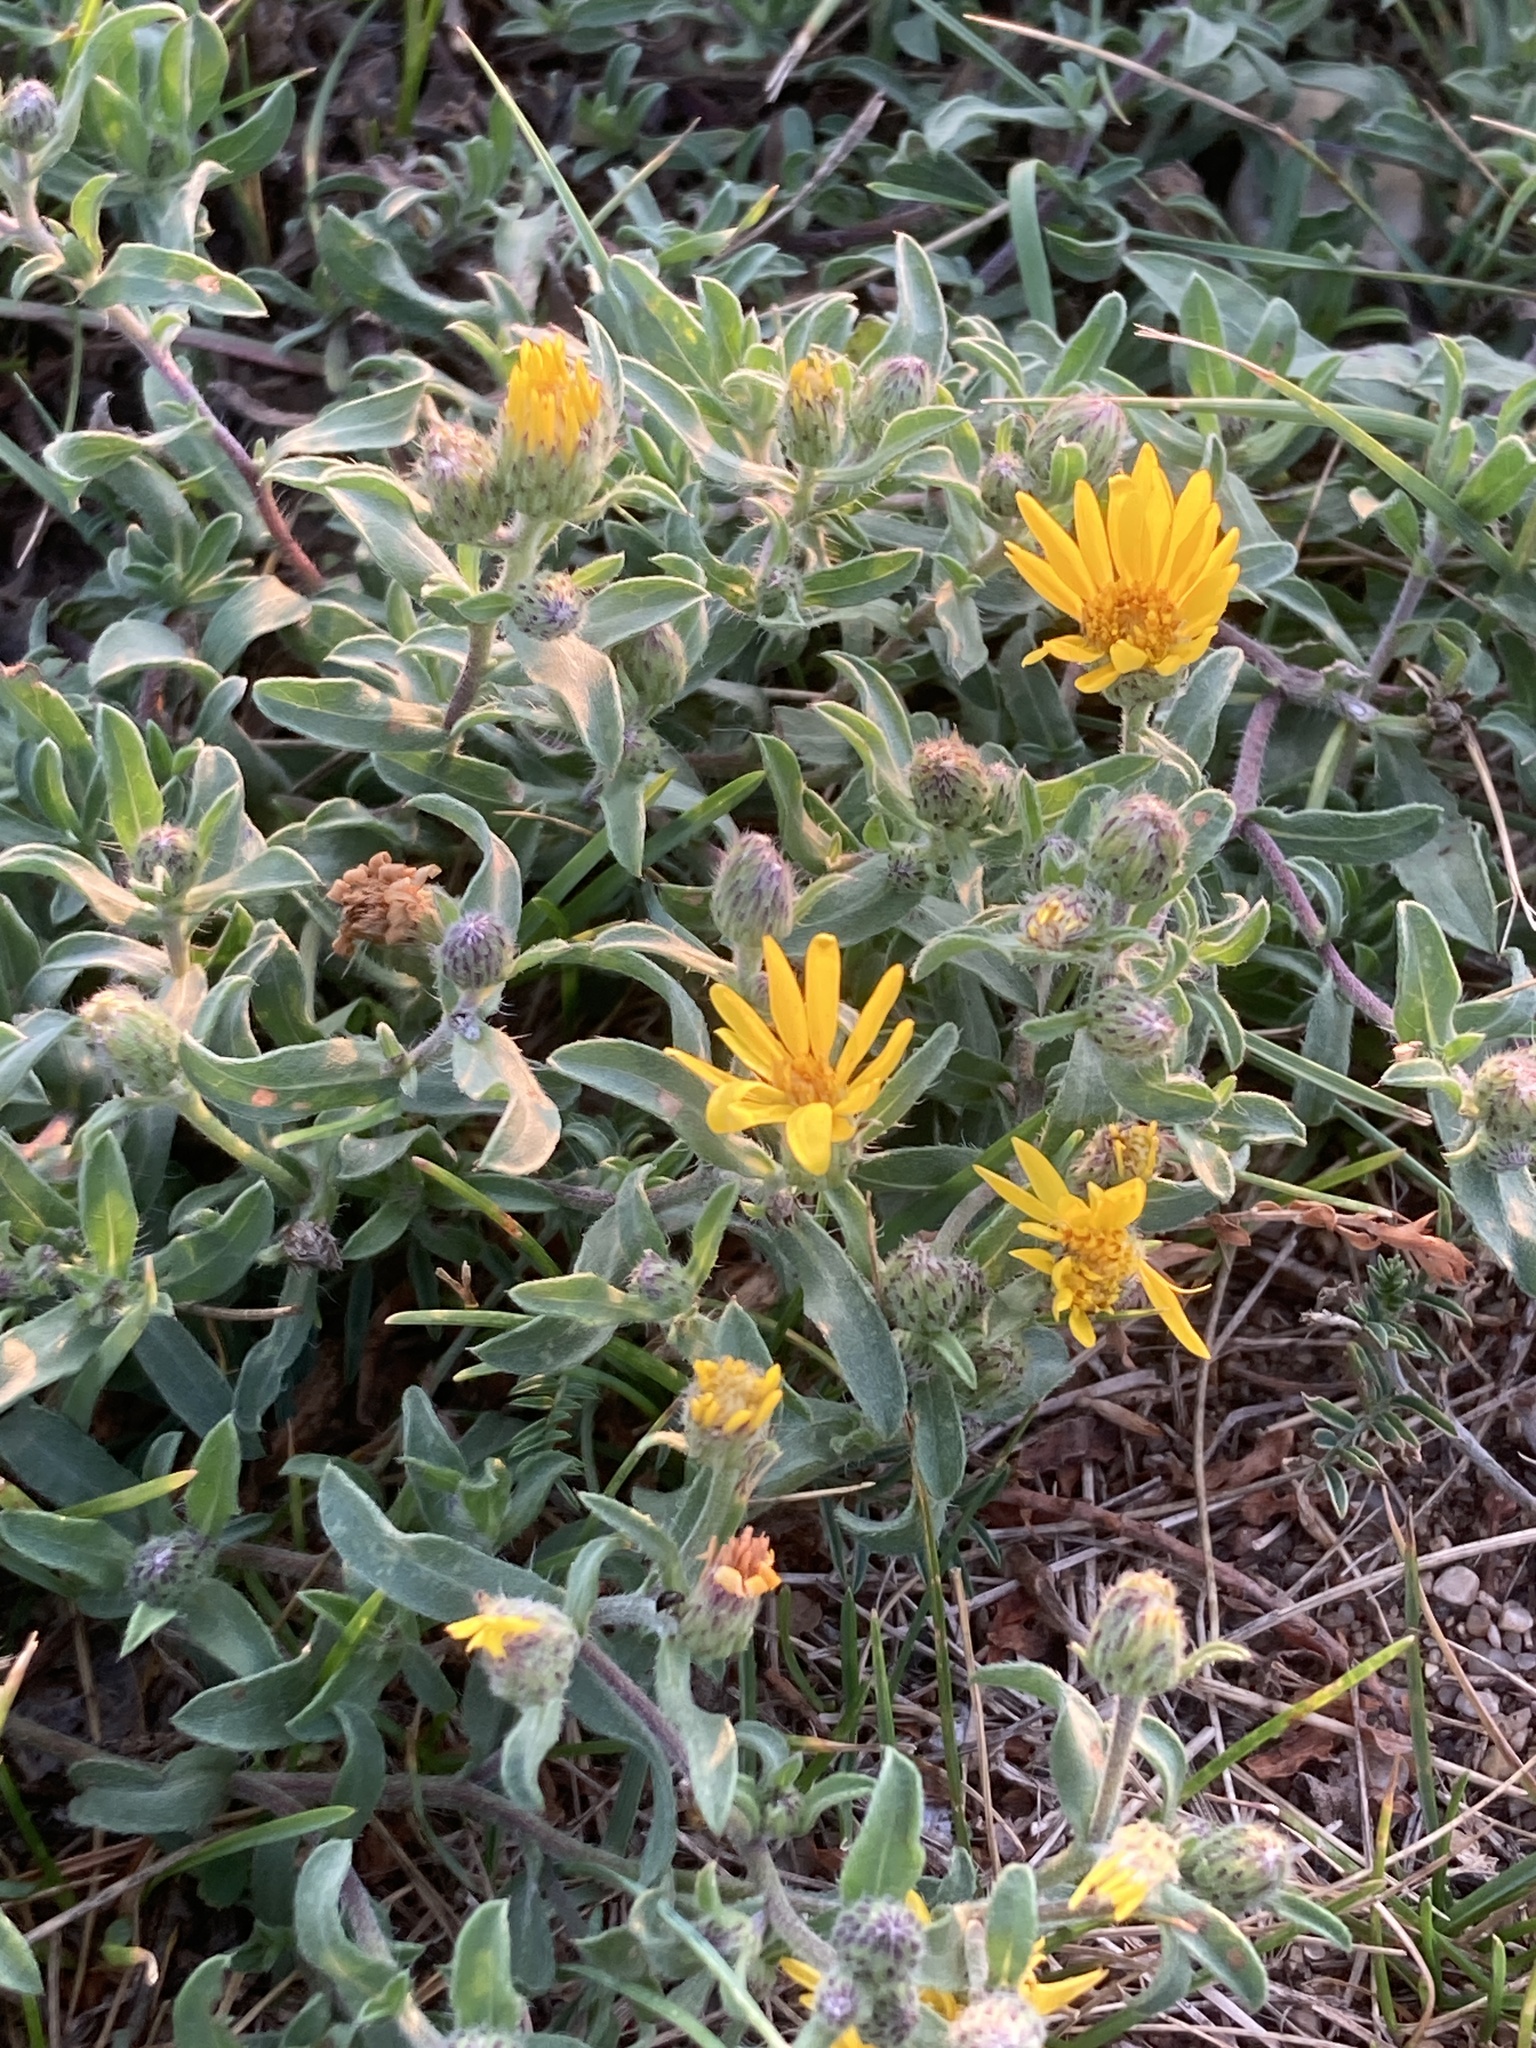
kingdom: Plantae
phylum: Tracheophyta
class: Magnoliopsida
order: Asterales
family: Asteraceae
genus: Heterotheca
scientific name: Heterotheca villosa
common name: Hairy false goldenaster
